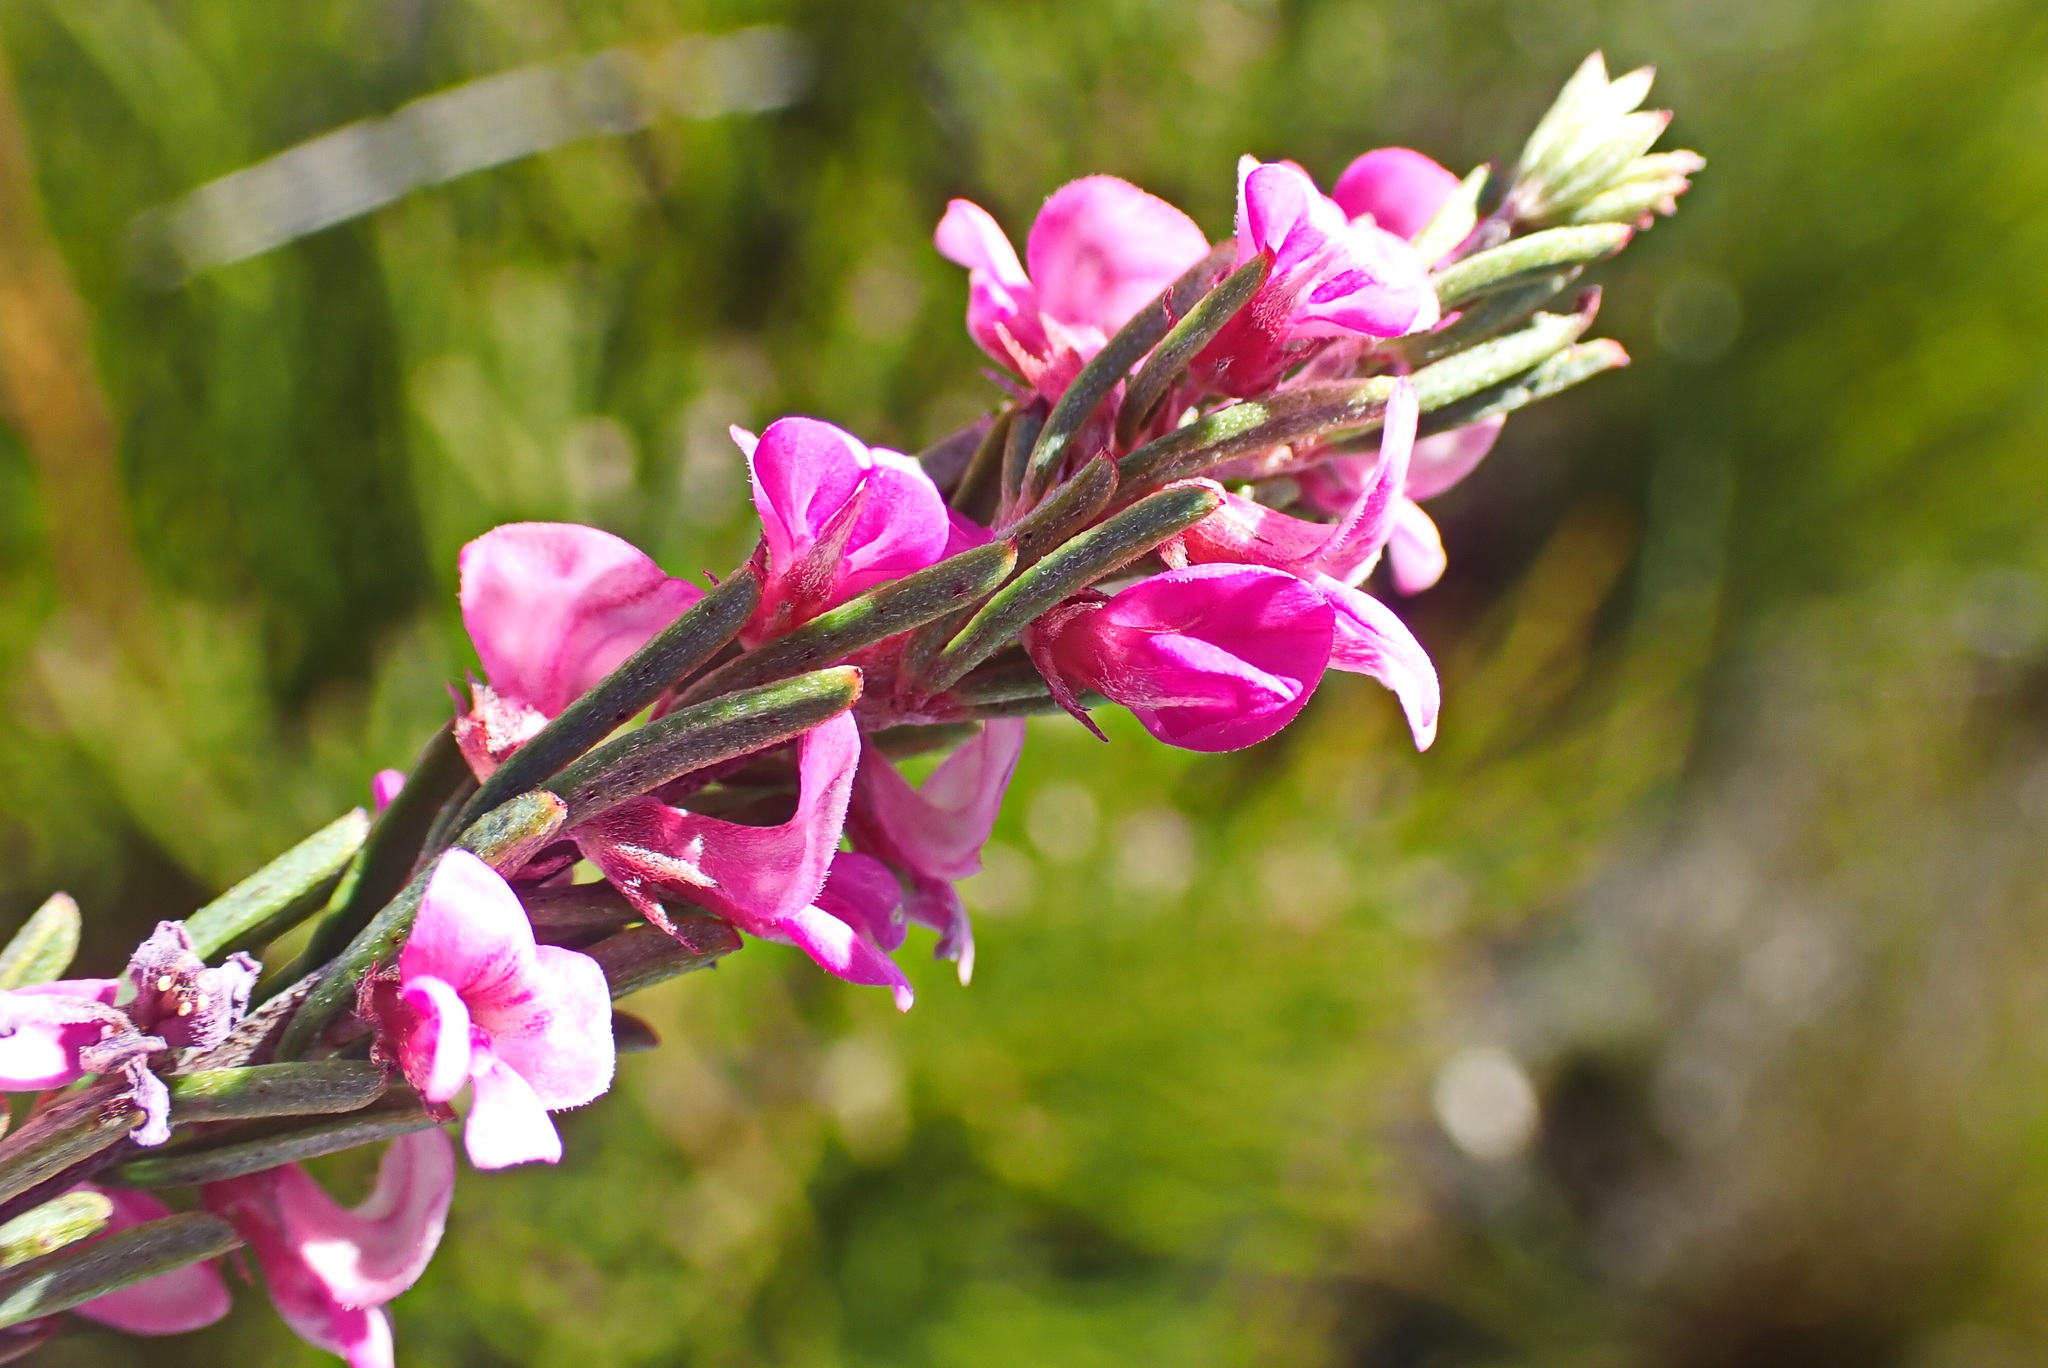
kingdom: Plantae
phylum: Tracheophyta
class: Magnoliopsida
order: Fabales
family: Fabaceae
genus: Indigofera
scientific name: Indigofera pappei
